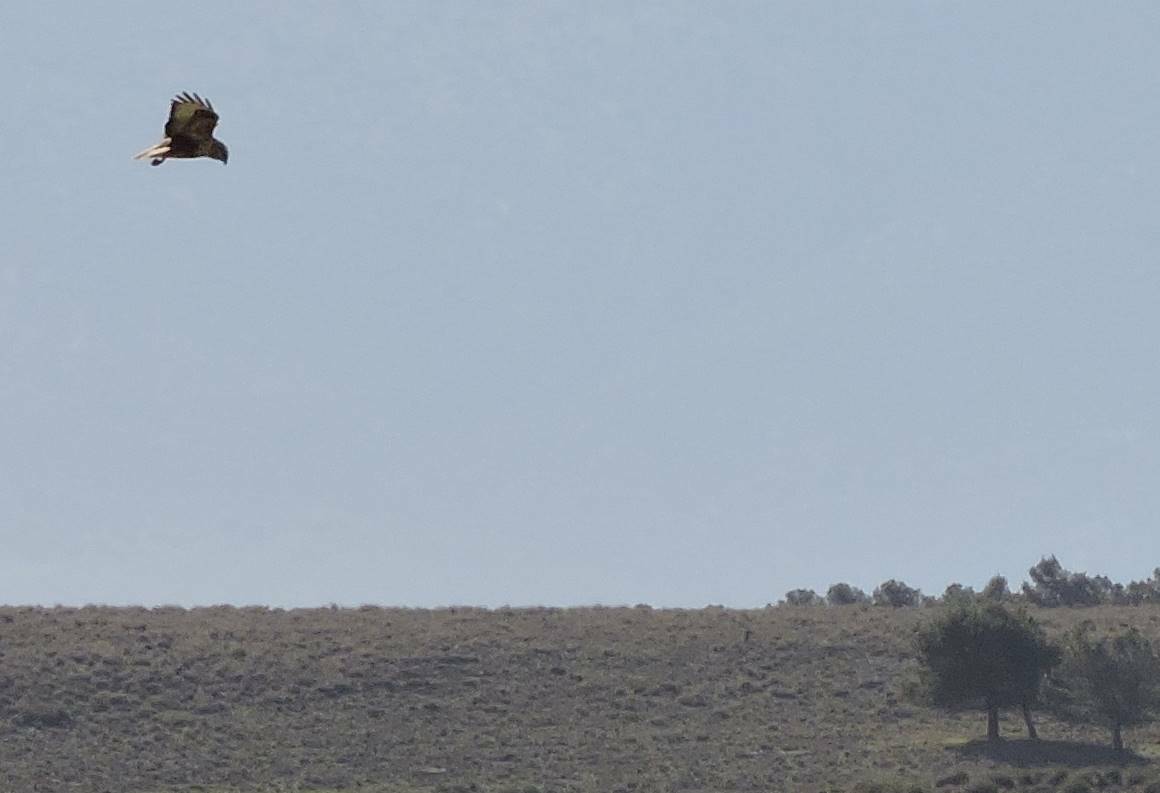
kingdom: Animalia
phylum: Chordata
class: Aves
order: Accipitriformes
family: Accipitridae
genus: Buteo
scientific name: Buteo rufinus
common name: Long-legged buzzard
